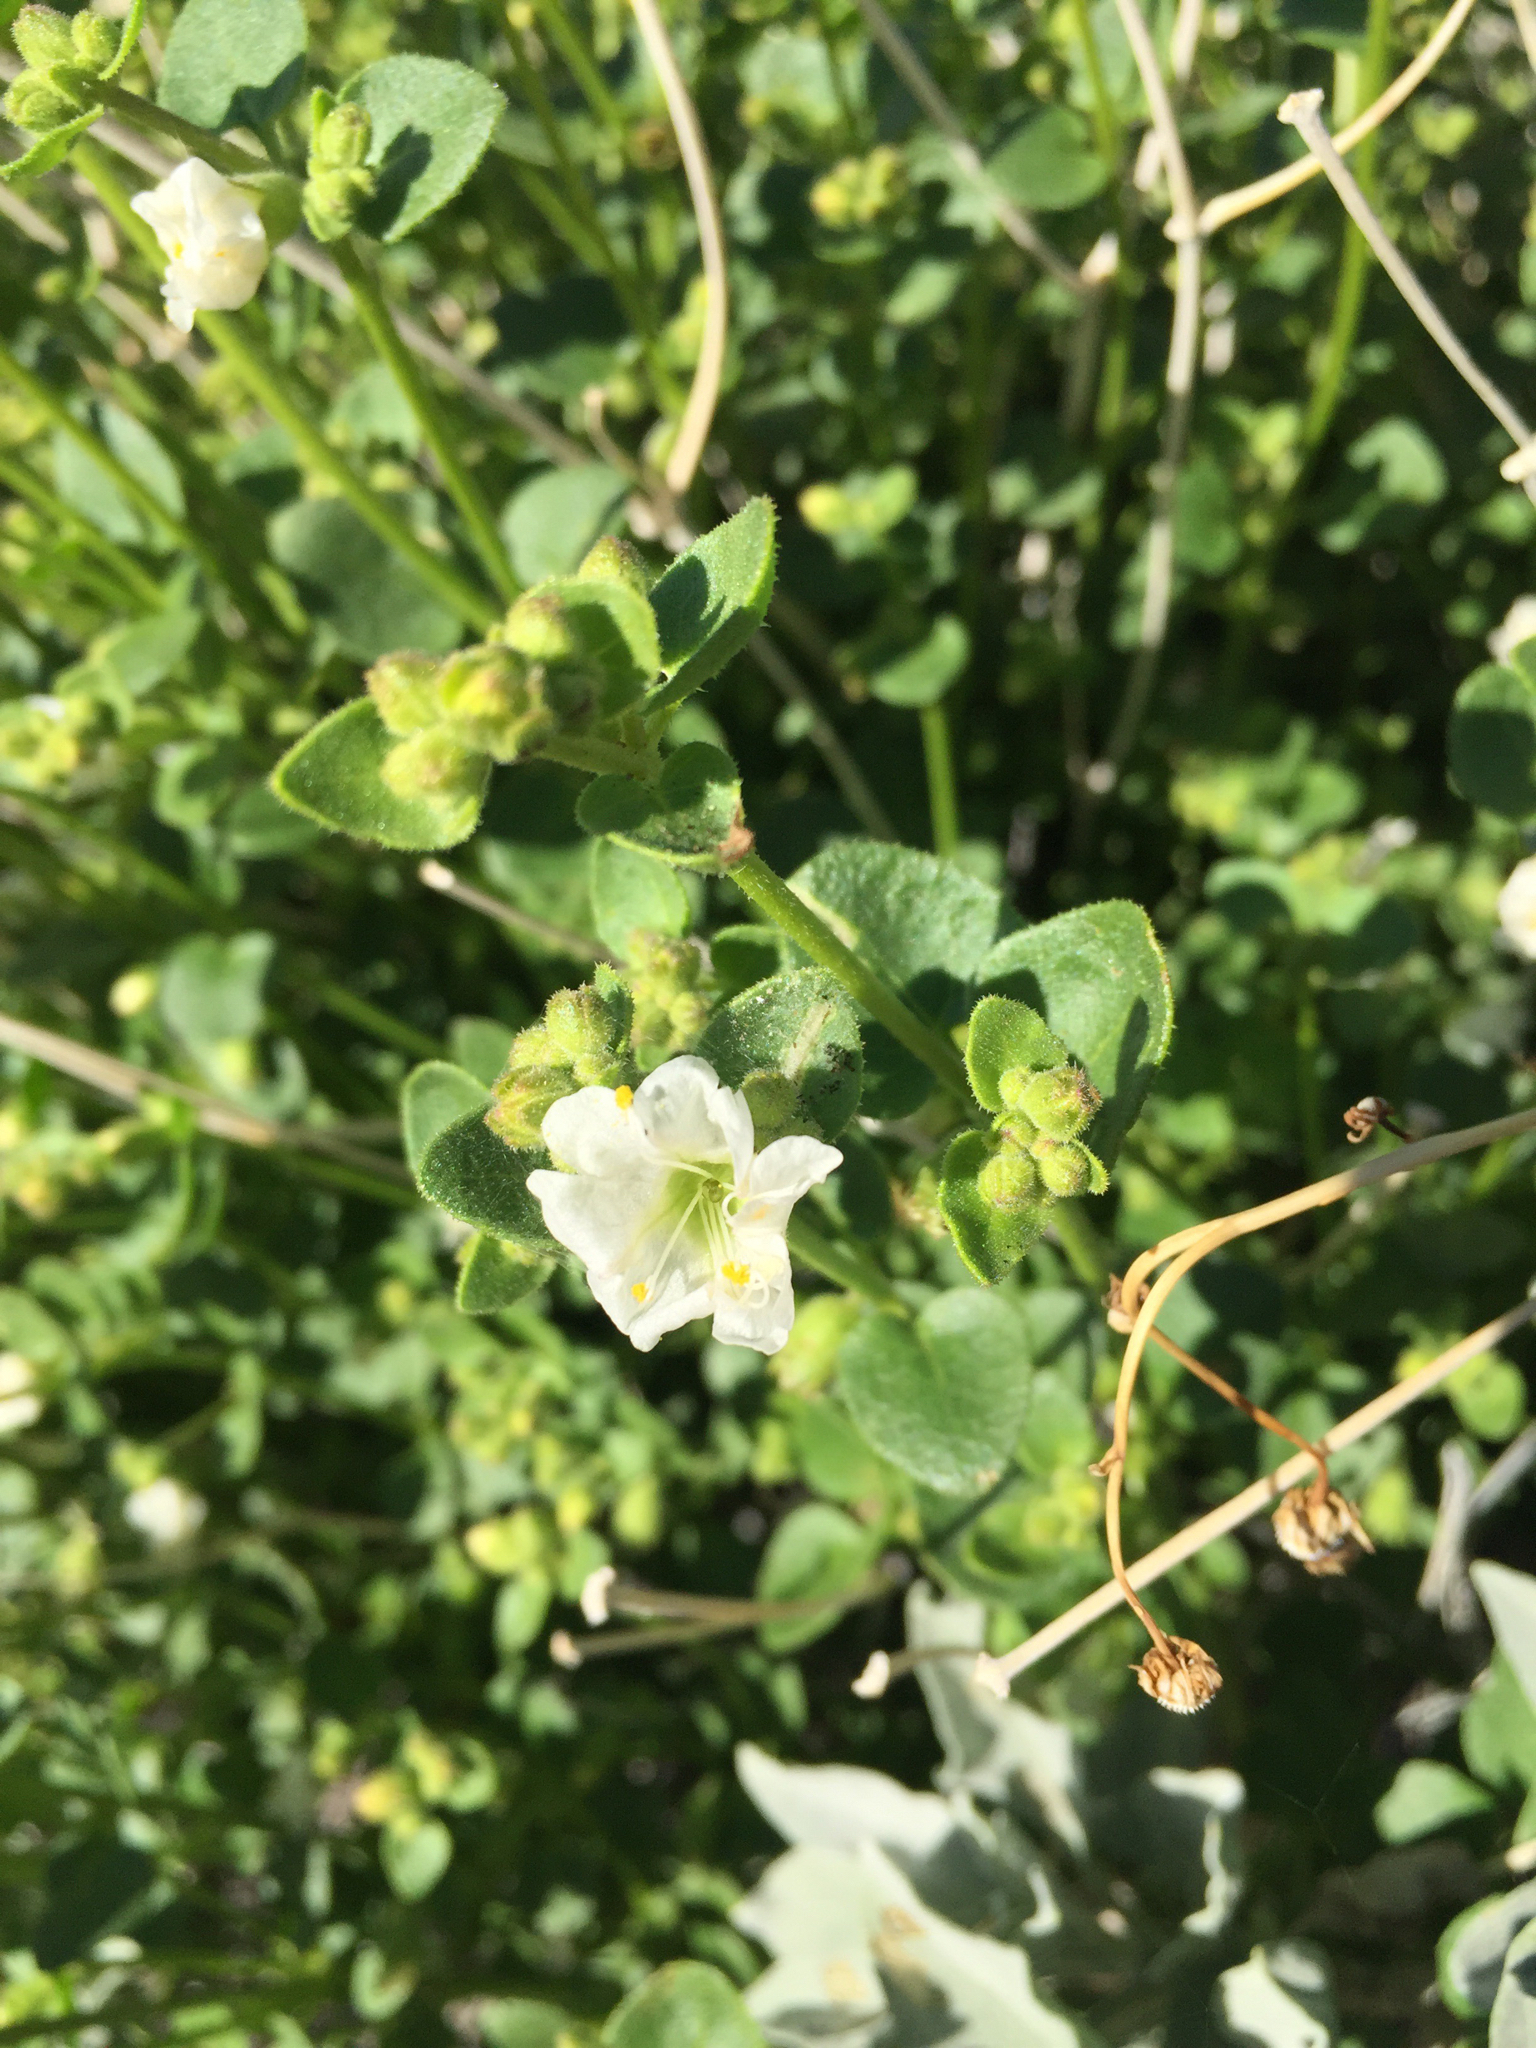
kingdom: Plantae
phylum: Tracheophyta
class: Magnoliopsida
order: Caryophyllales
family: Nyctaginaceae
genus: Mirabilis
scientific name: Mirabilis laevis
